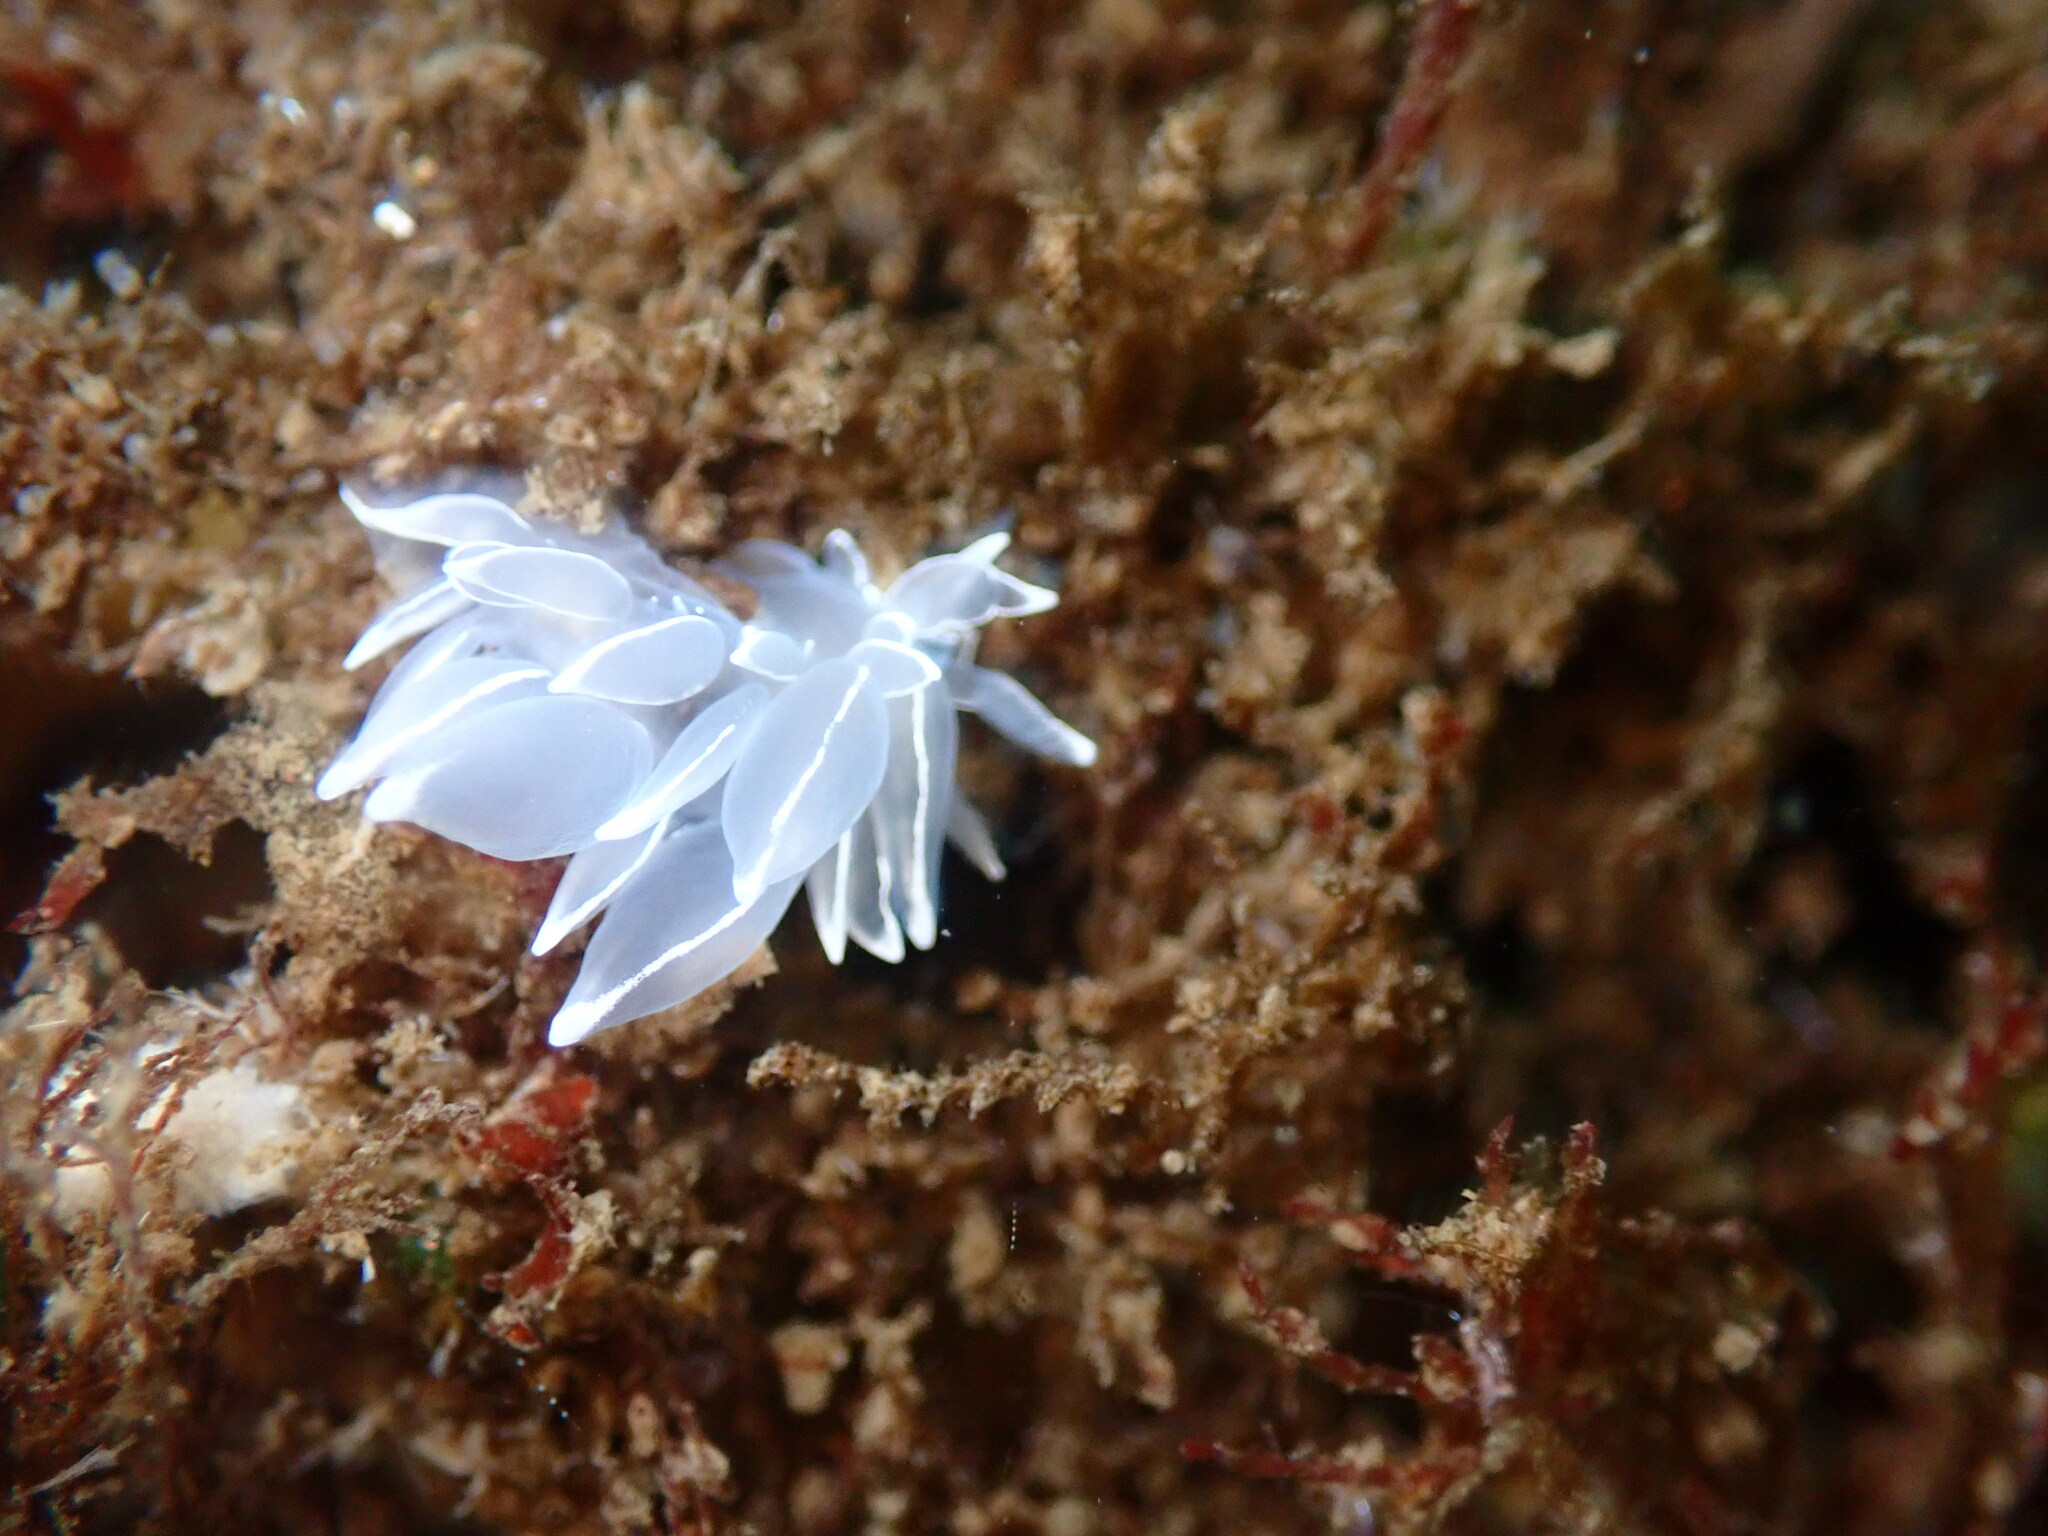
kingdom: Animalia
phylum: Mollusca
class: Gastropoda
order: Nudibranchia
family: Dironidae
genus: Dirona
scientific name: Dirona albolineata
